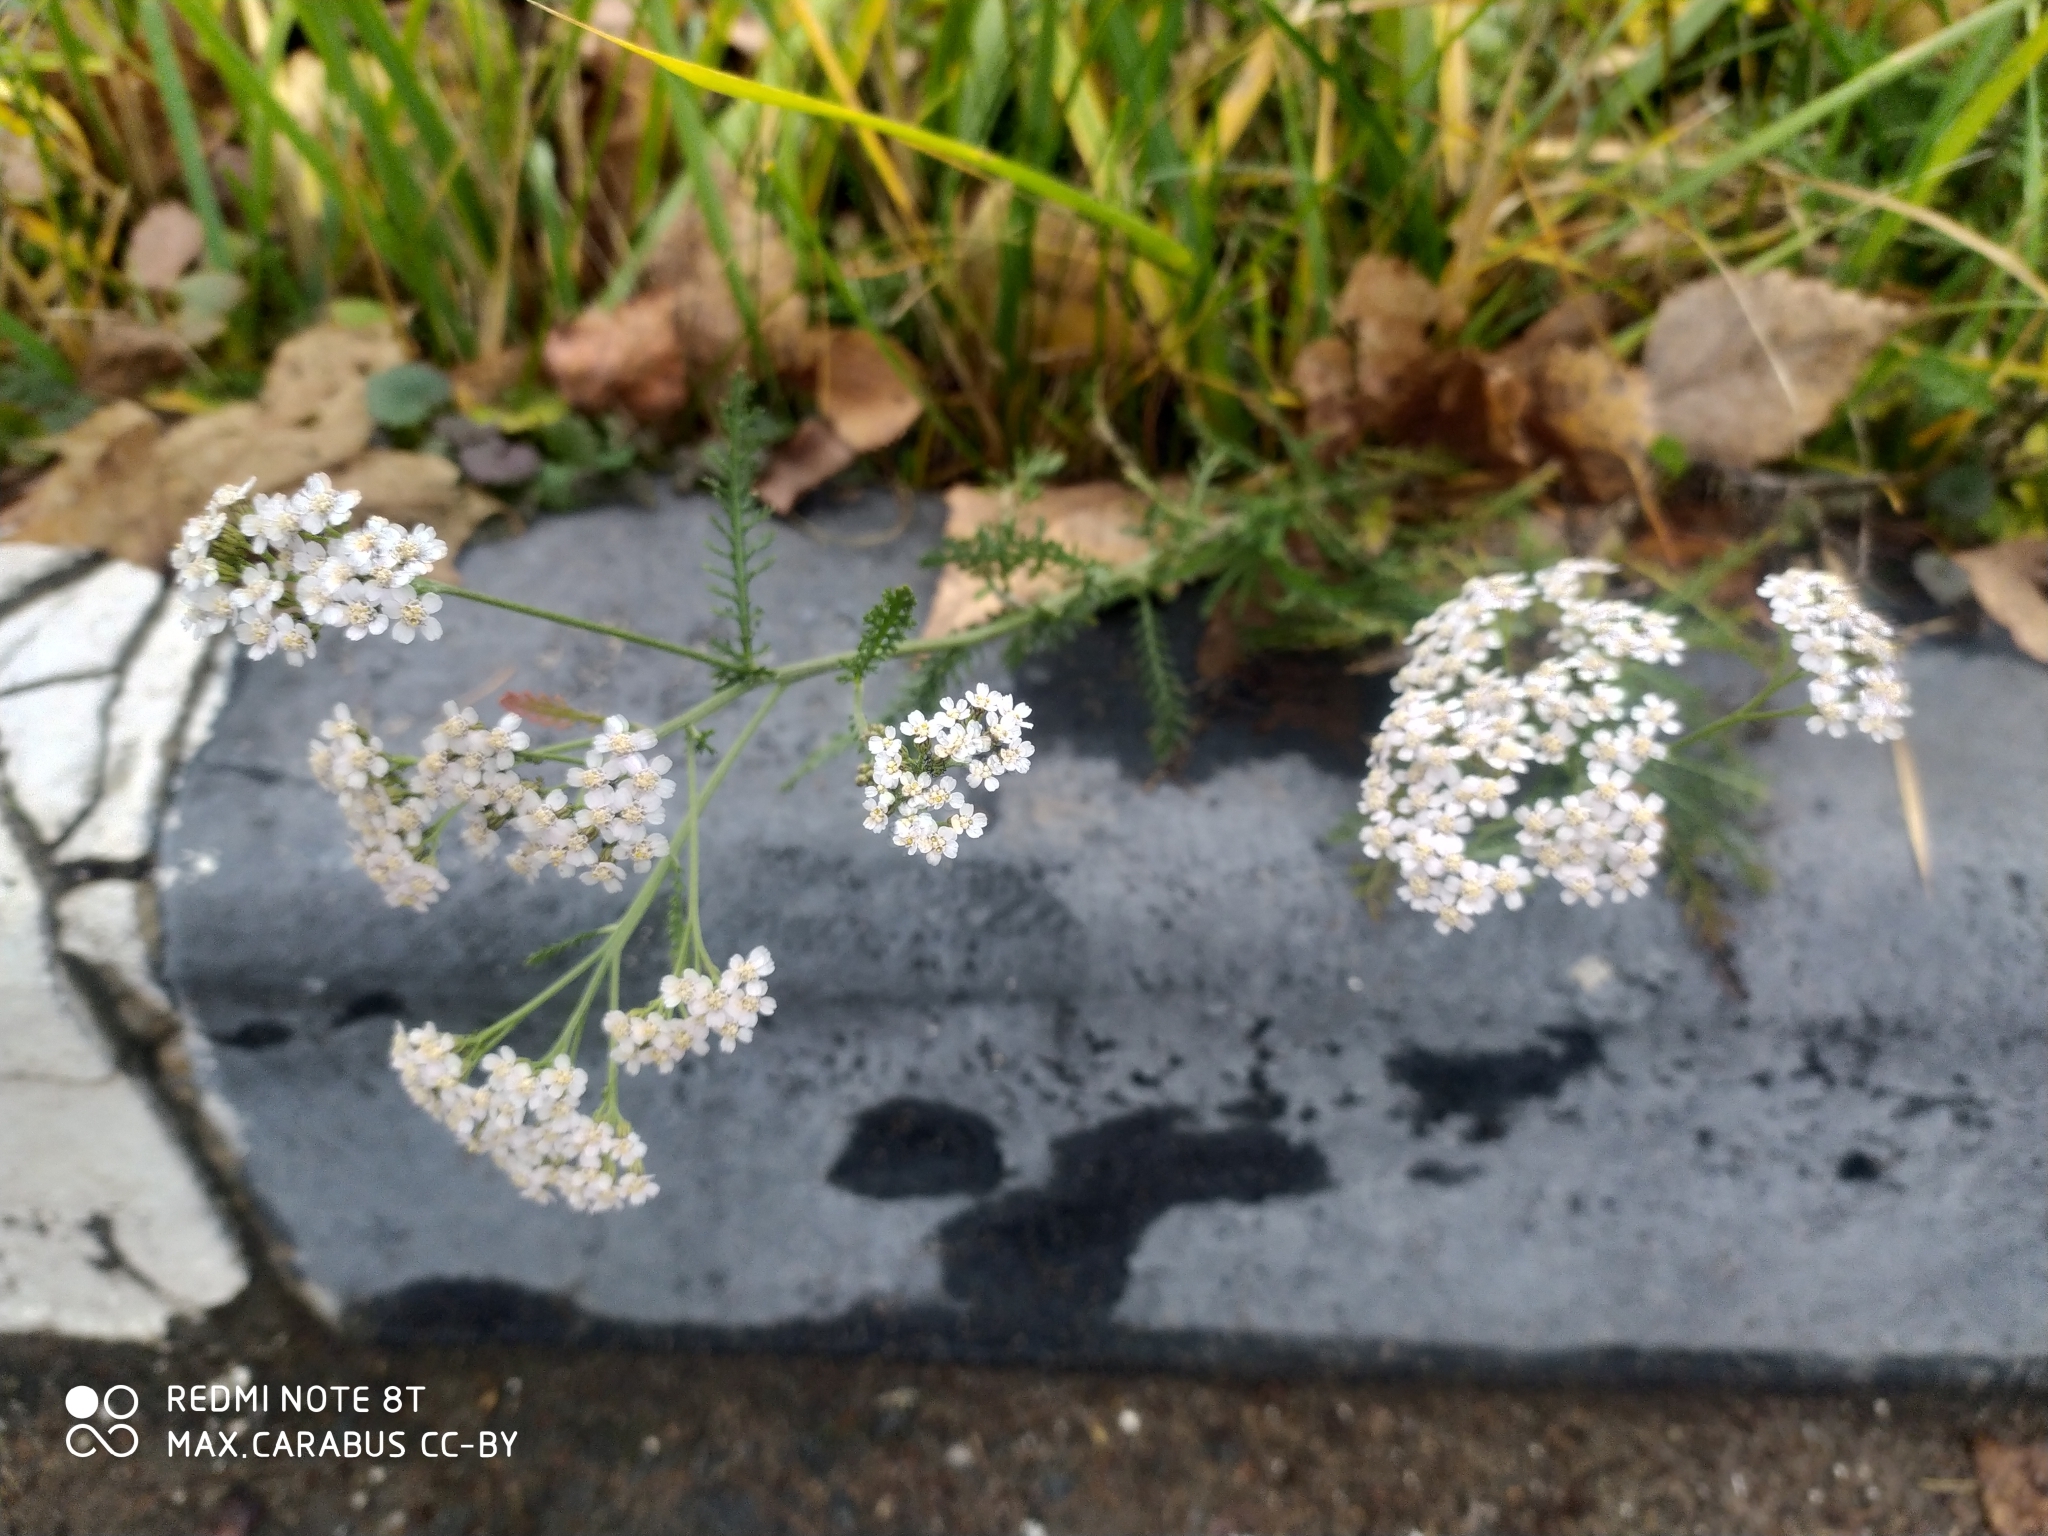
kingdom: Plantae
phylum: Tracheophyta
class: Magnoliopsida
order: Asterales
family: Asteraceae
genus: Achillea
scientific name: Achillea millefolium
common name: Yarrow
